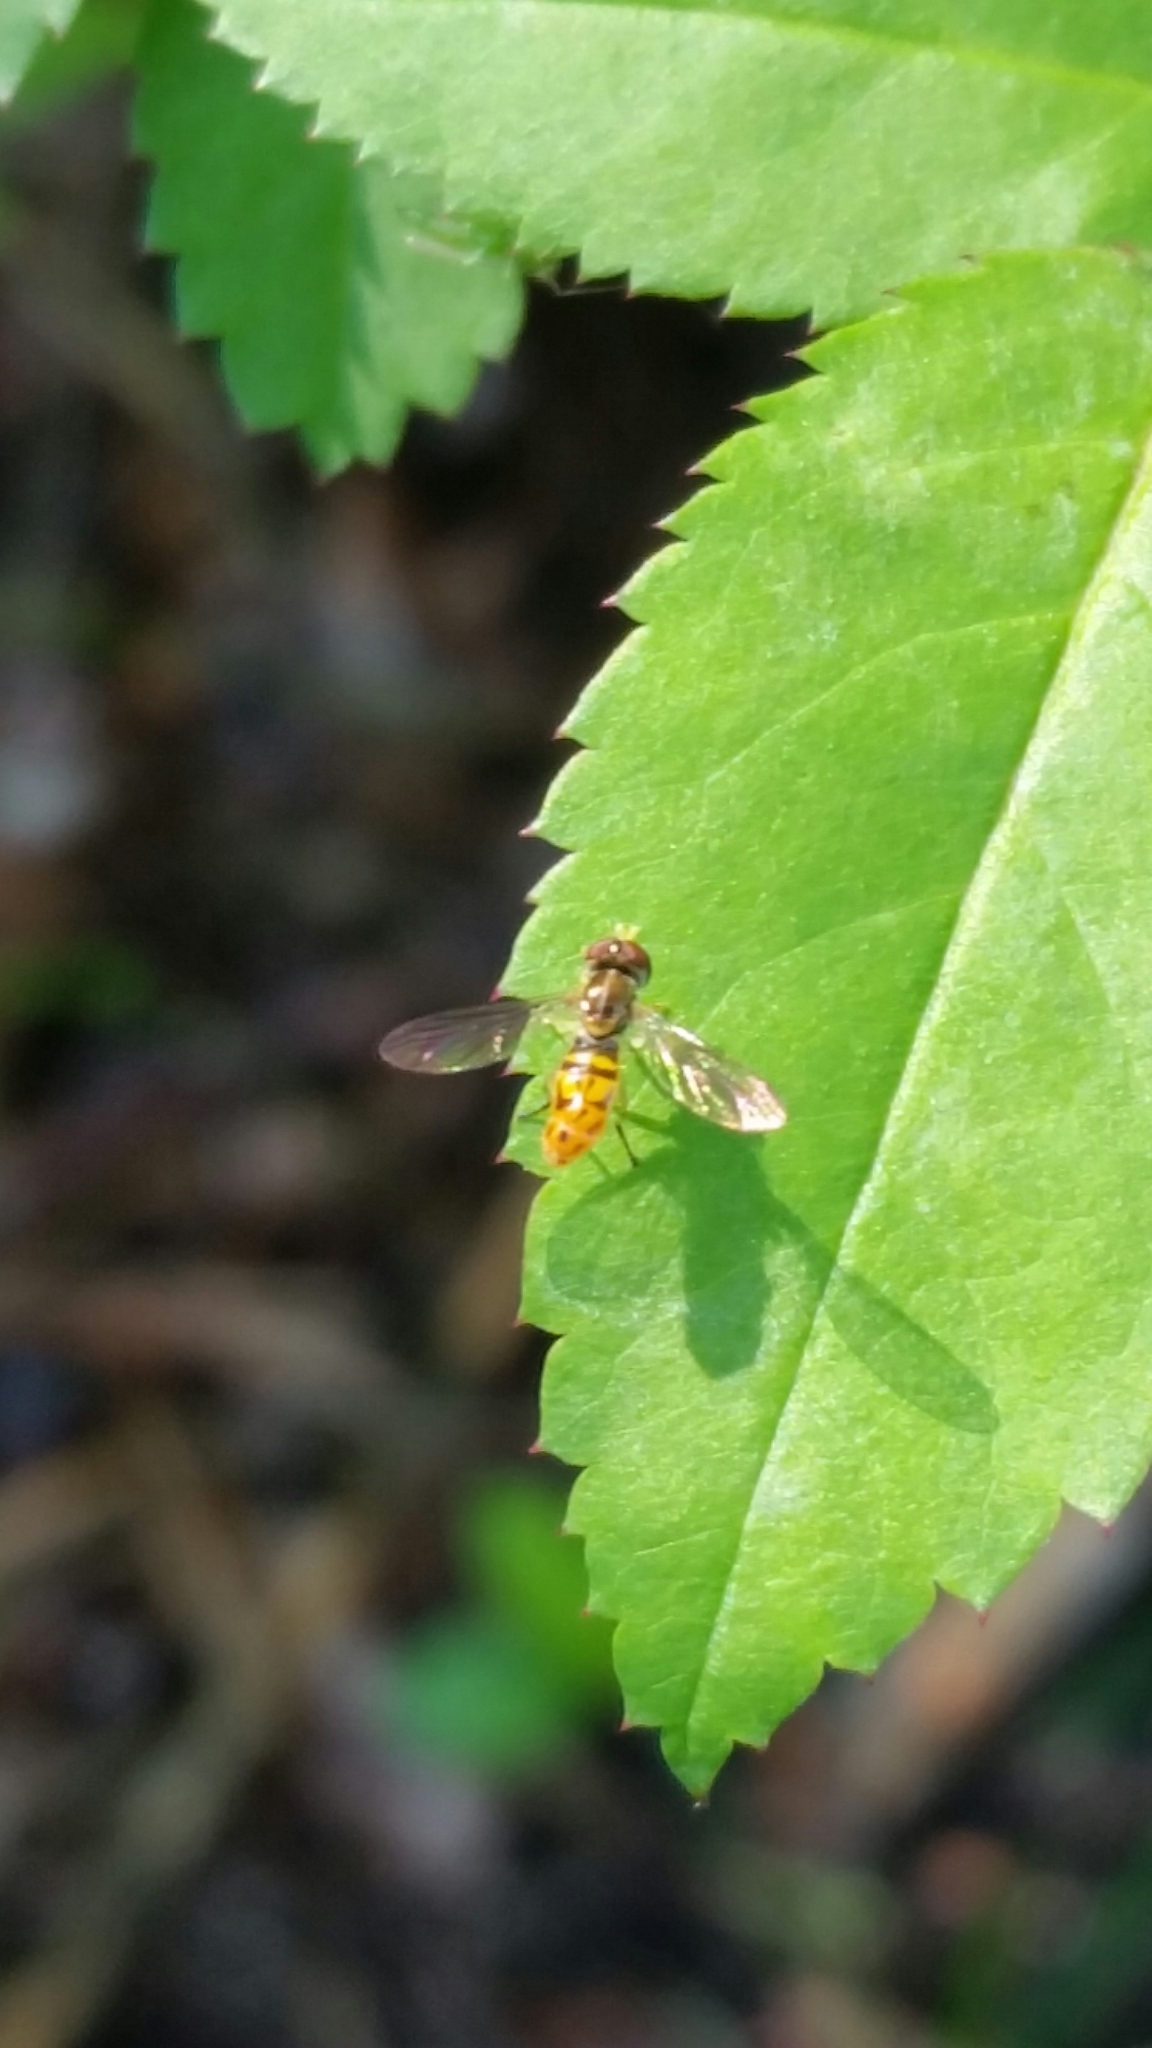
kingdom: Animalia
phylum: Arthropoda
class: Insecta
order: Diptera
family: Syrphidae
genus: Toxomerus
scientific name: Toxomerus marginatus
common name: Syrphid fly
